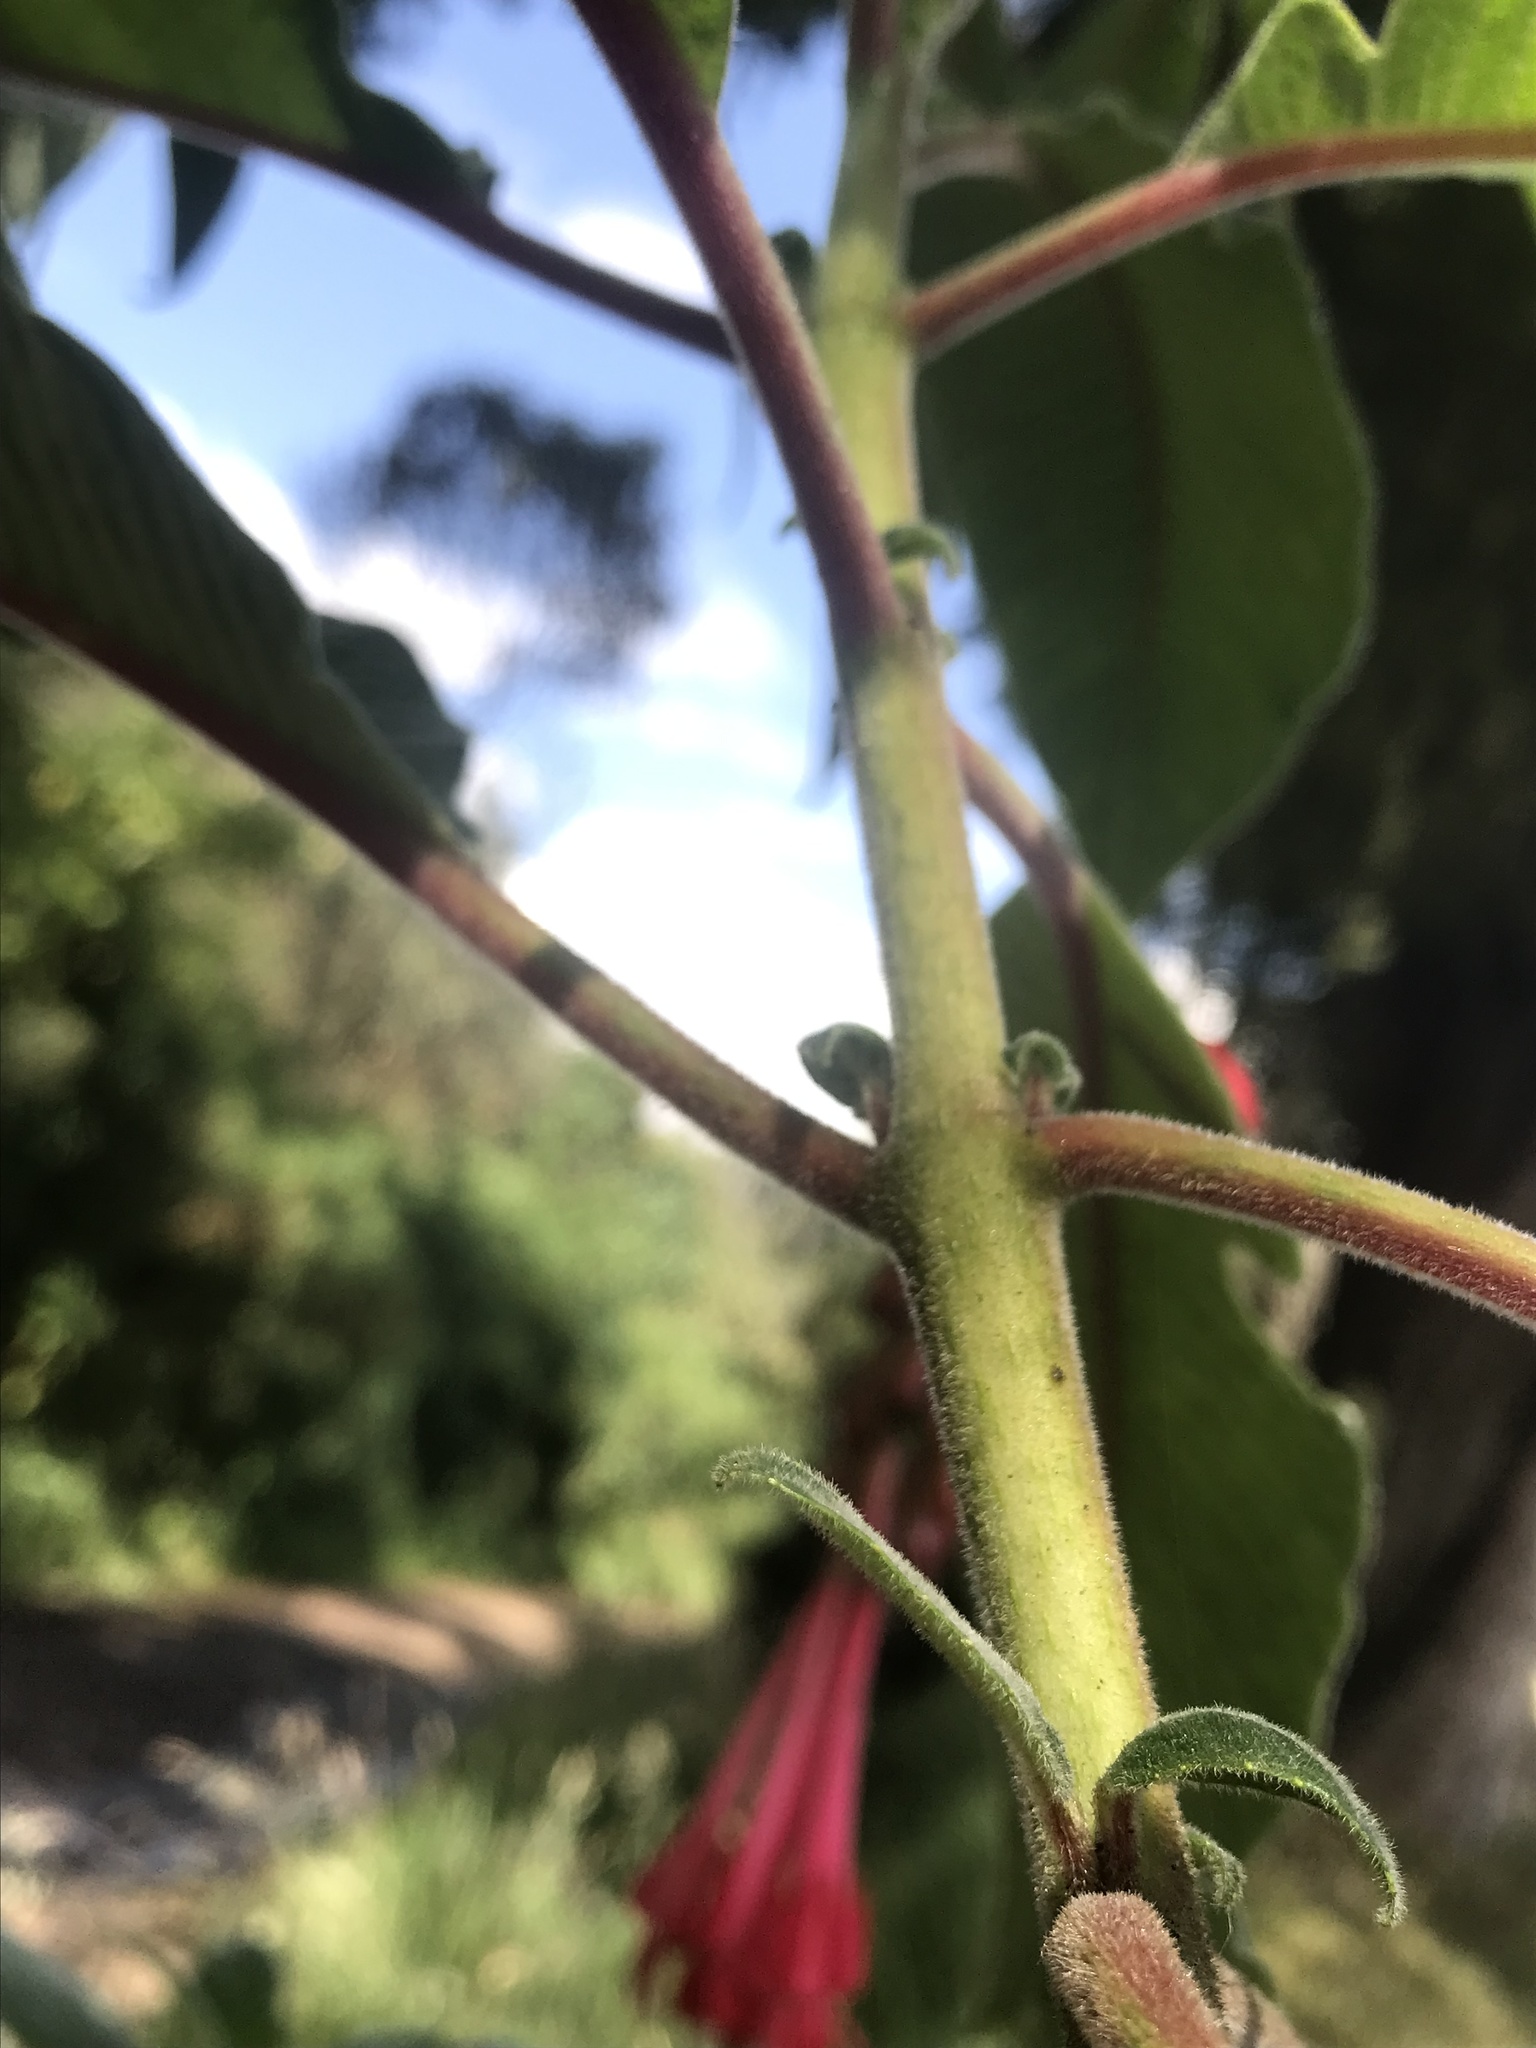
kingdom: Plantae
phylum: Tracheophyta
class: Magnoliopsida
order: Myrtales
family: Onagraceae
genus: Fuchsia
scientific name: Fuchsia boliviana
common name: Bolivian fuchsia
